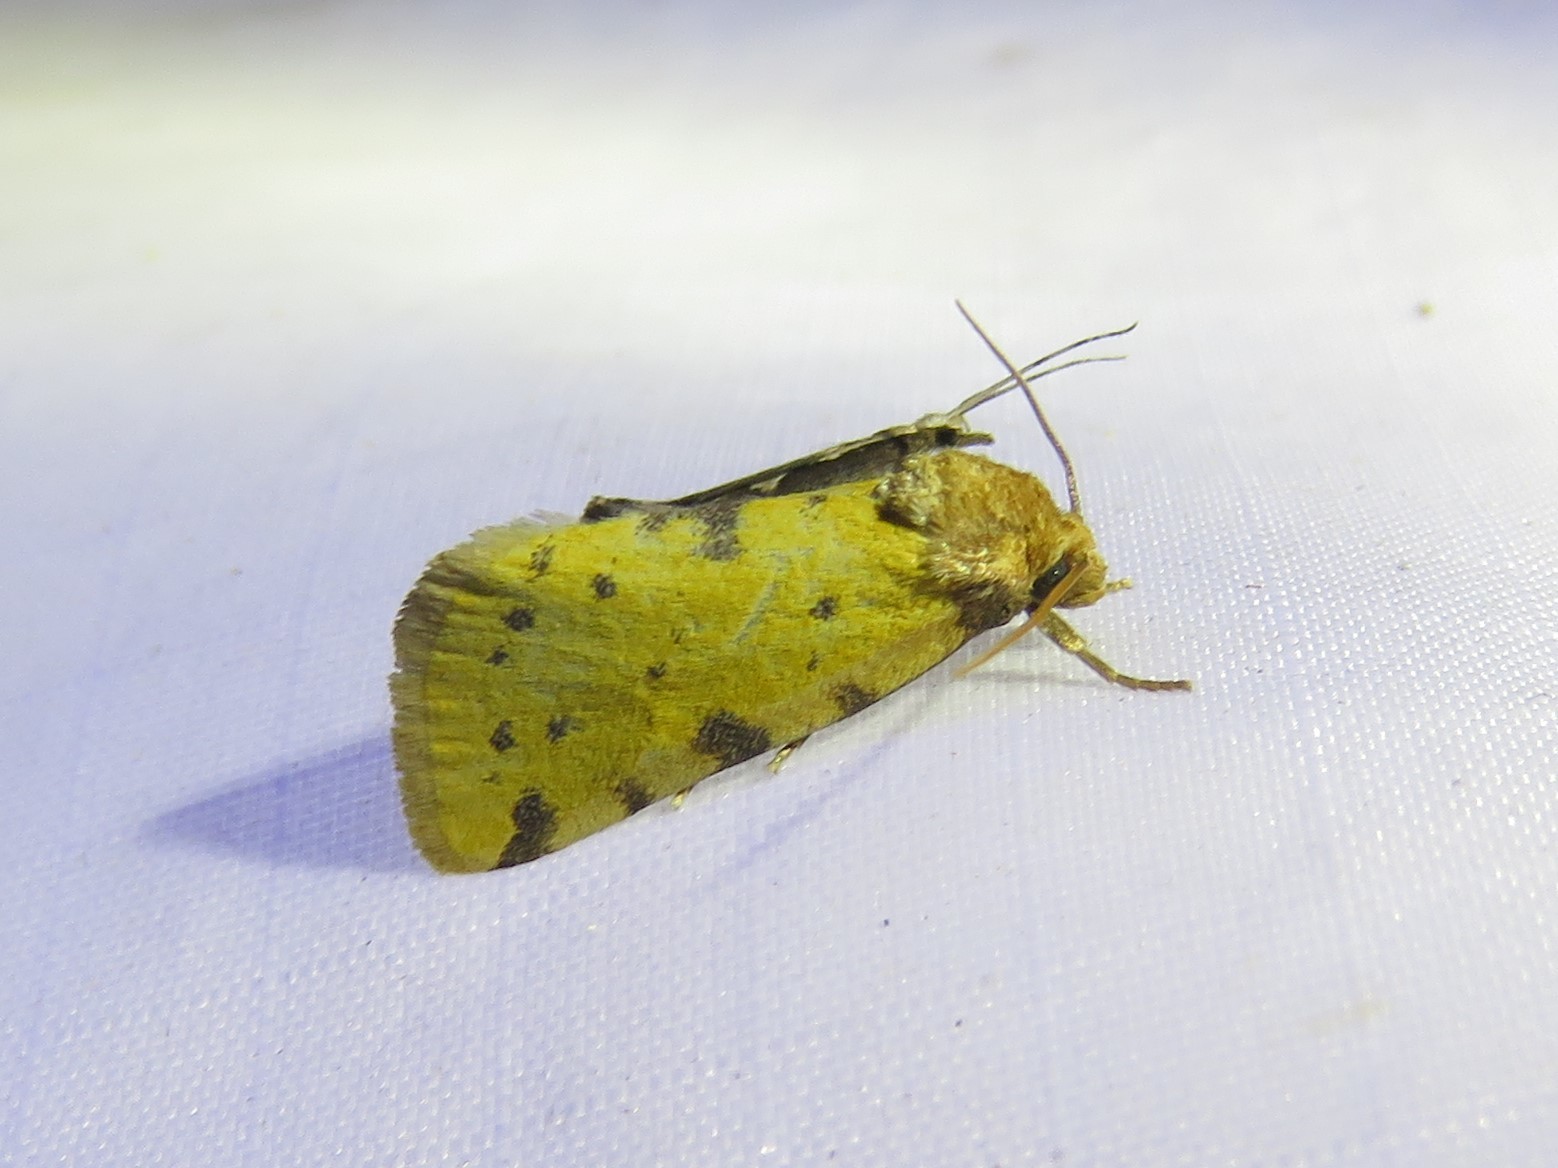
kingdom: Animalia
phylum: Arthropoda
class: Insecta
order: Lepidoptera
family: Noctuidae
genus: Azenia
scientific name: Azenia obtusa
